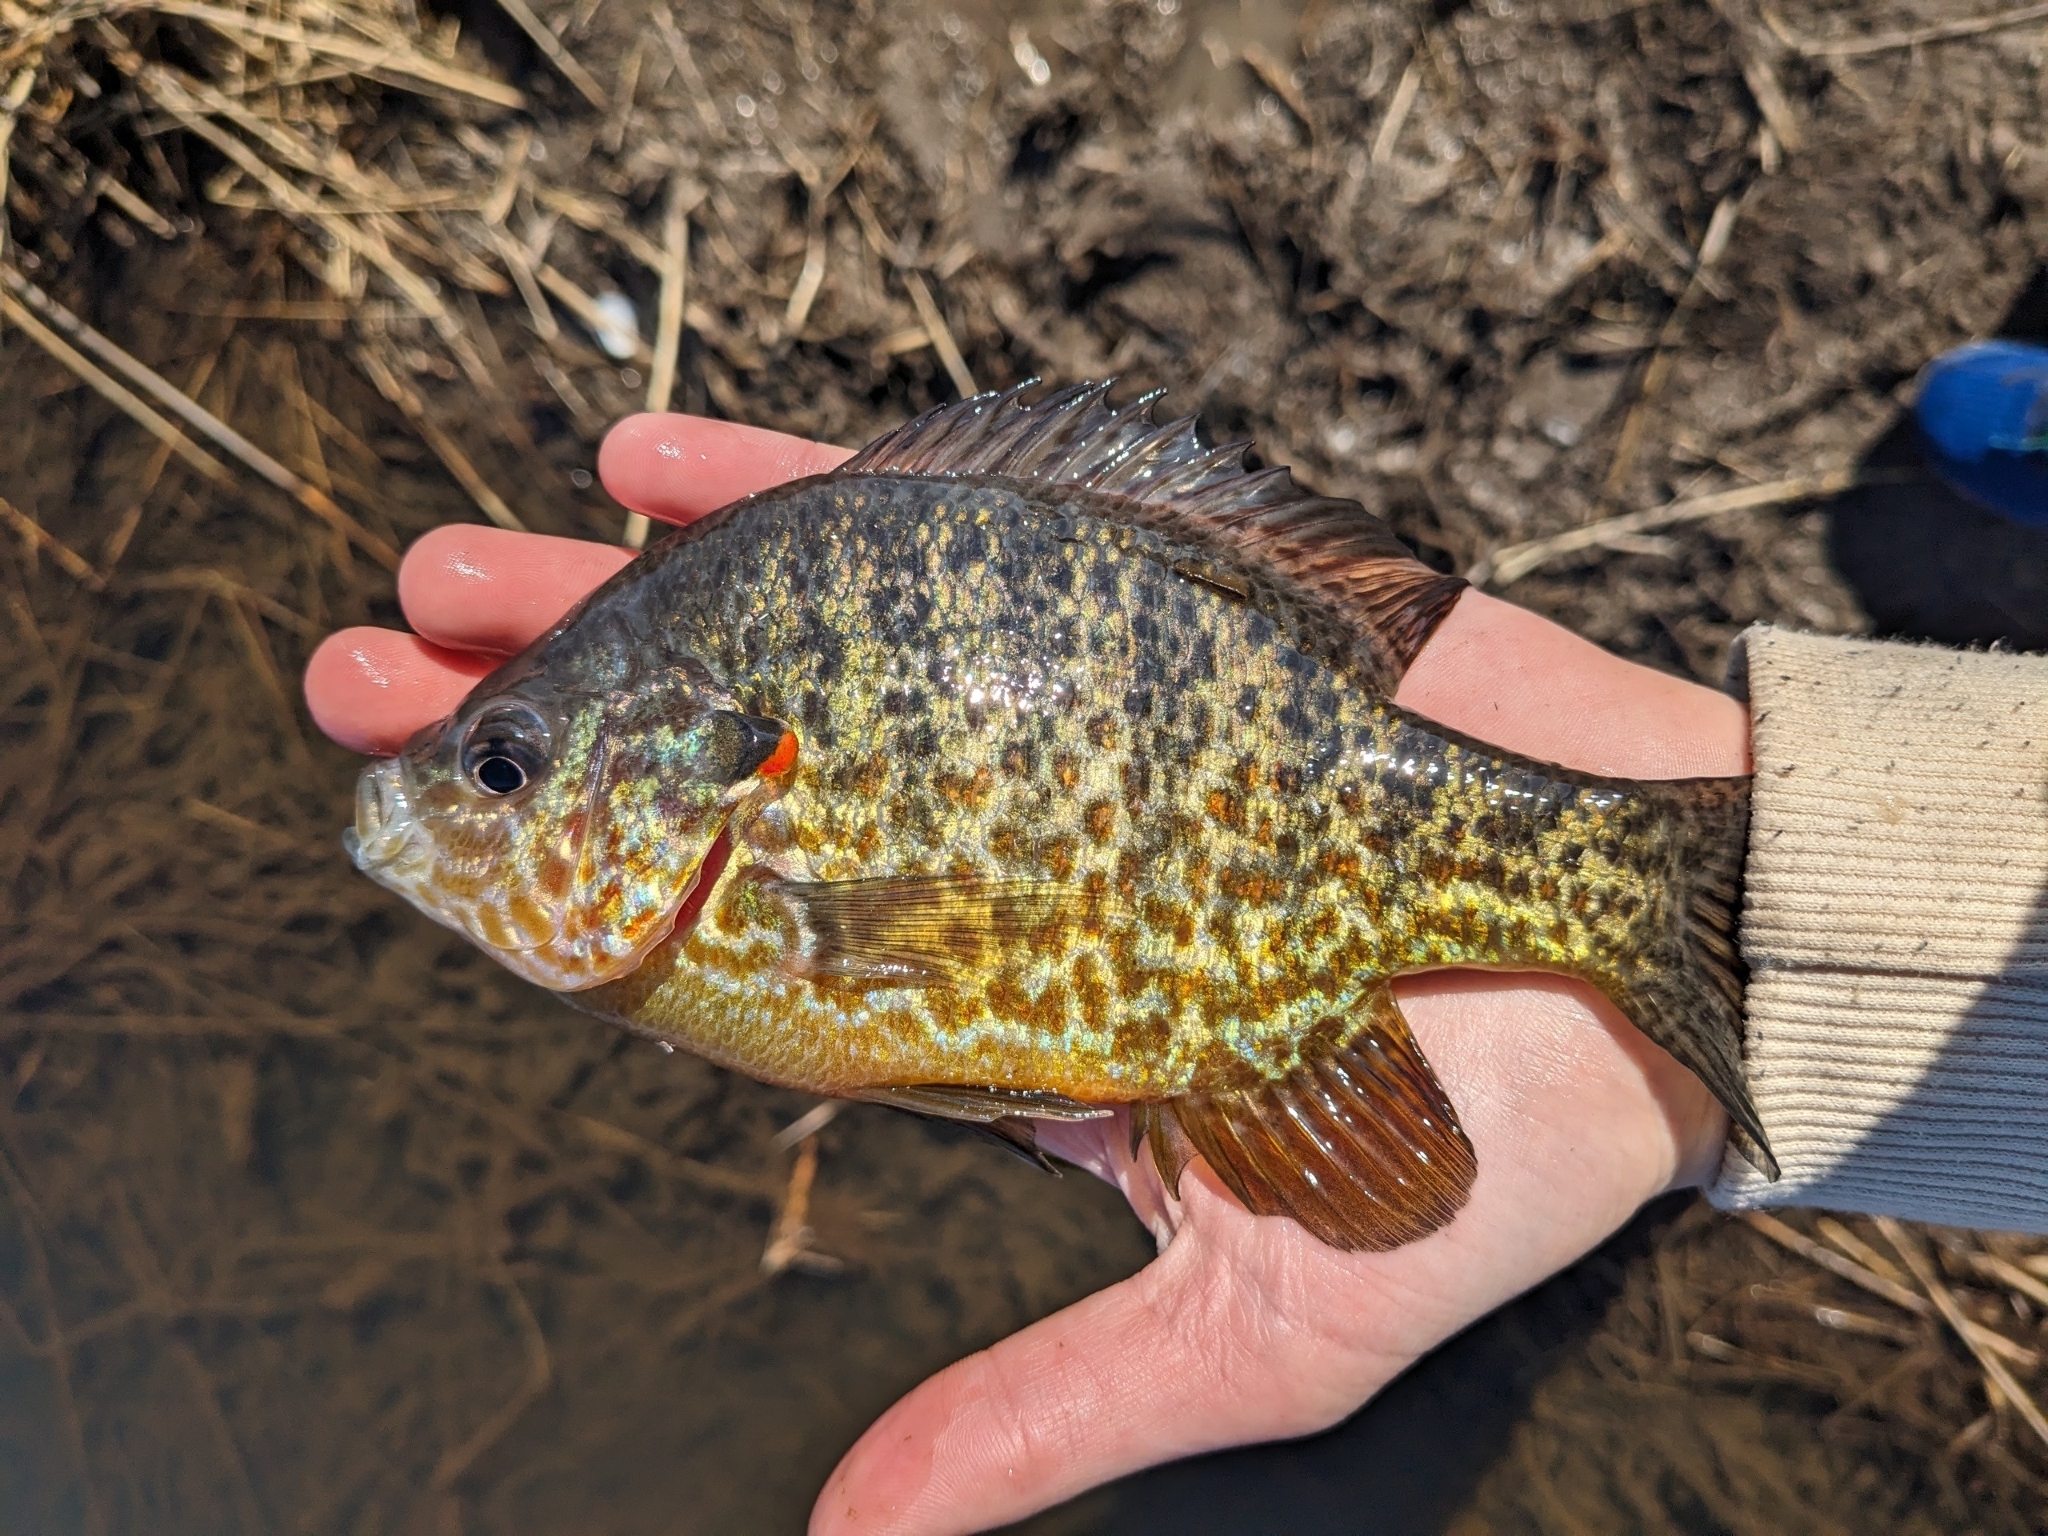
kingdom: Animalia
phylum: Chordata
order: Perciformes
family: Centrarchidae
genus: Lepomis
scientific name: Lepomis gibbosus
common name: Pumpkinseed
